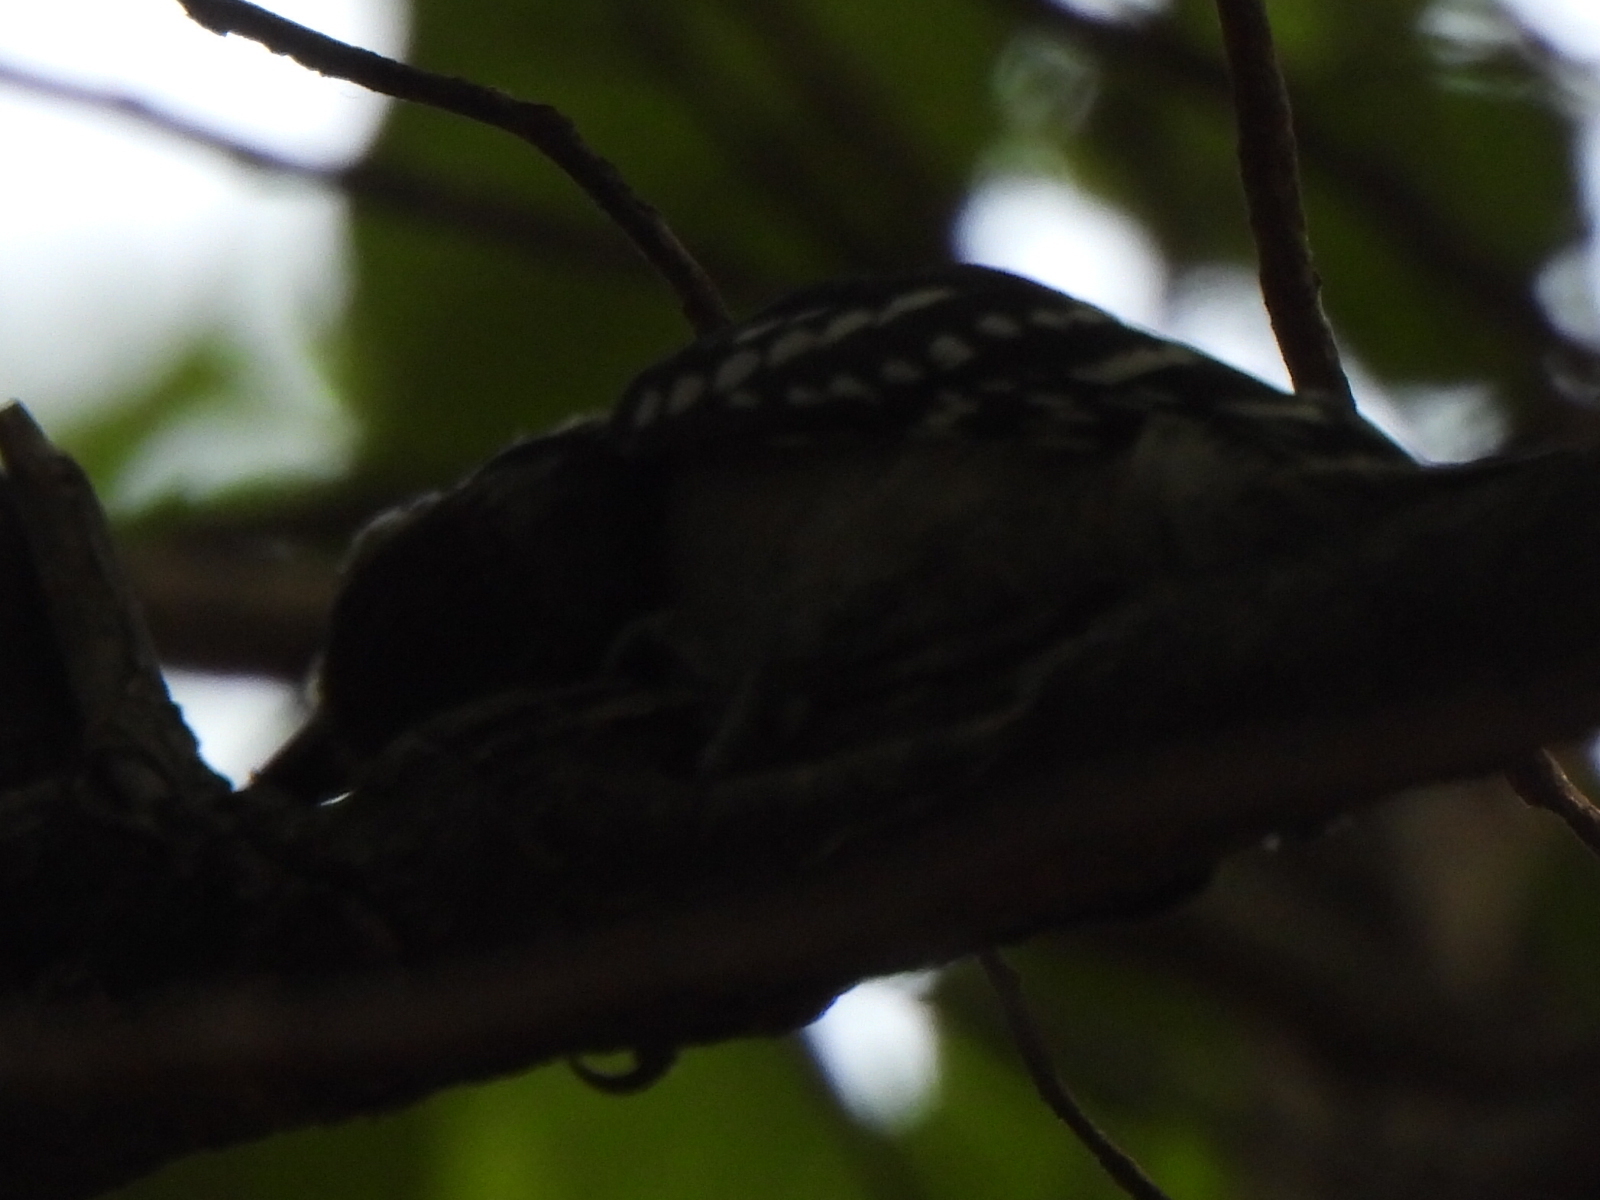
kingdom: Animalia
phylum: Chordata
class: Aves
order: Piciformes
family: Picidae
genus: Dryobates
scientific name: Dryobates pubescens
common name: Downy woodpecker
